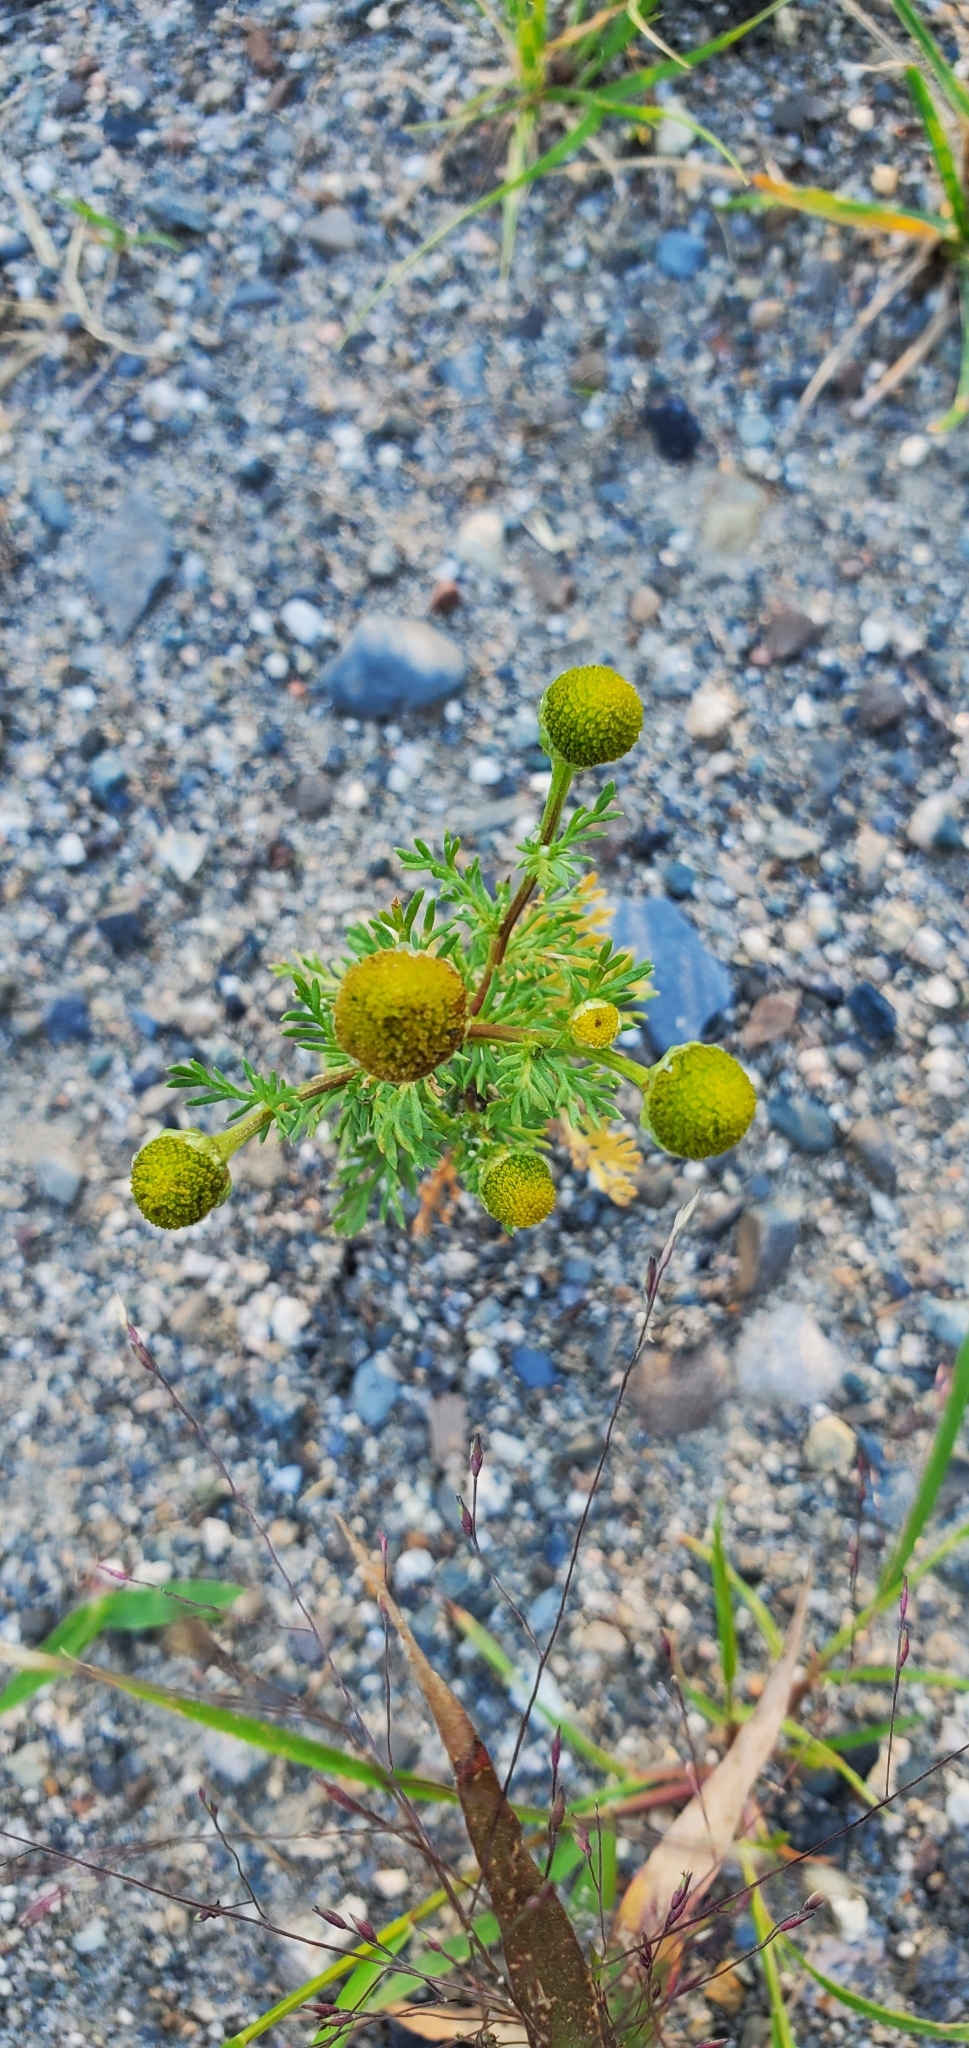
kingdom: Plantae
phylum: Tracheophyta
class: Magnoliopsida
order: Asterales
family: Asteraceae
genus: Matricaria
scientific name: Matricaria discoidea
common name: Disc mayweed
